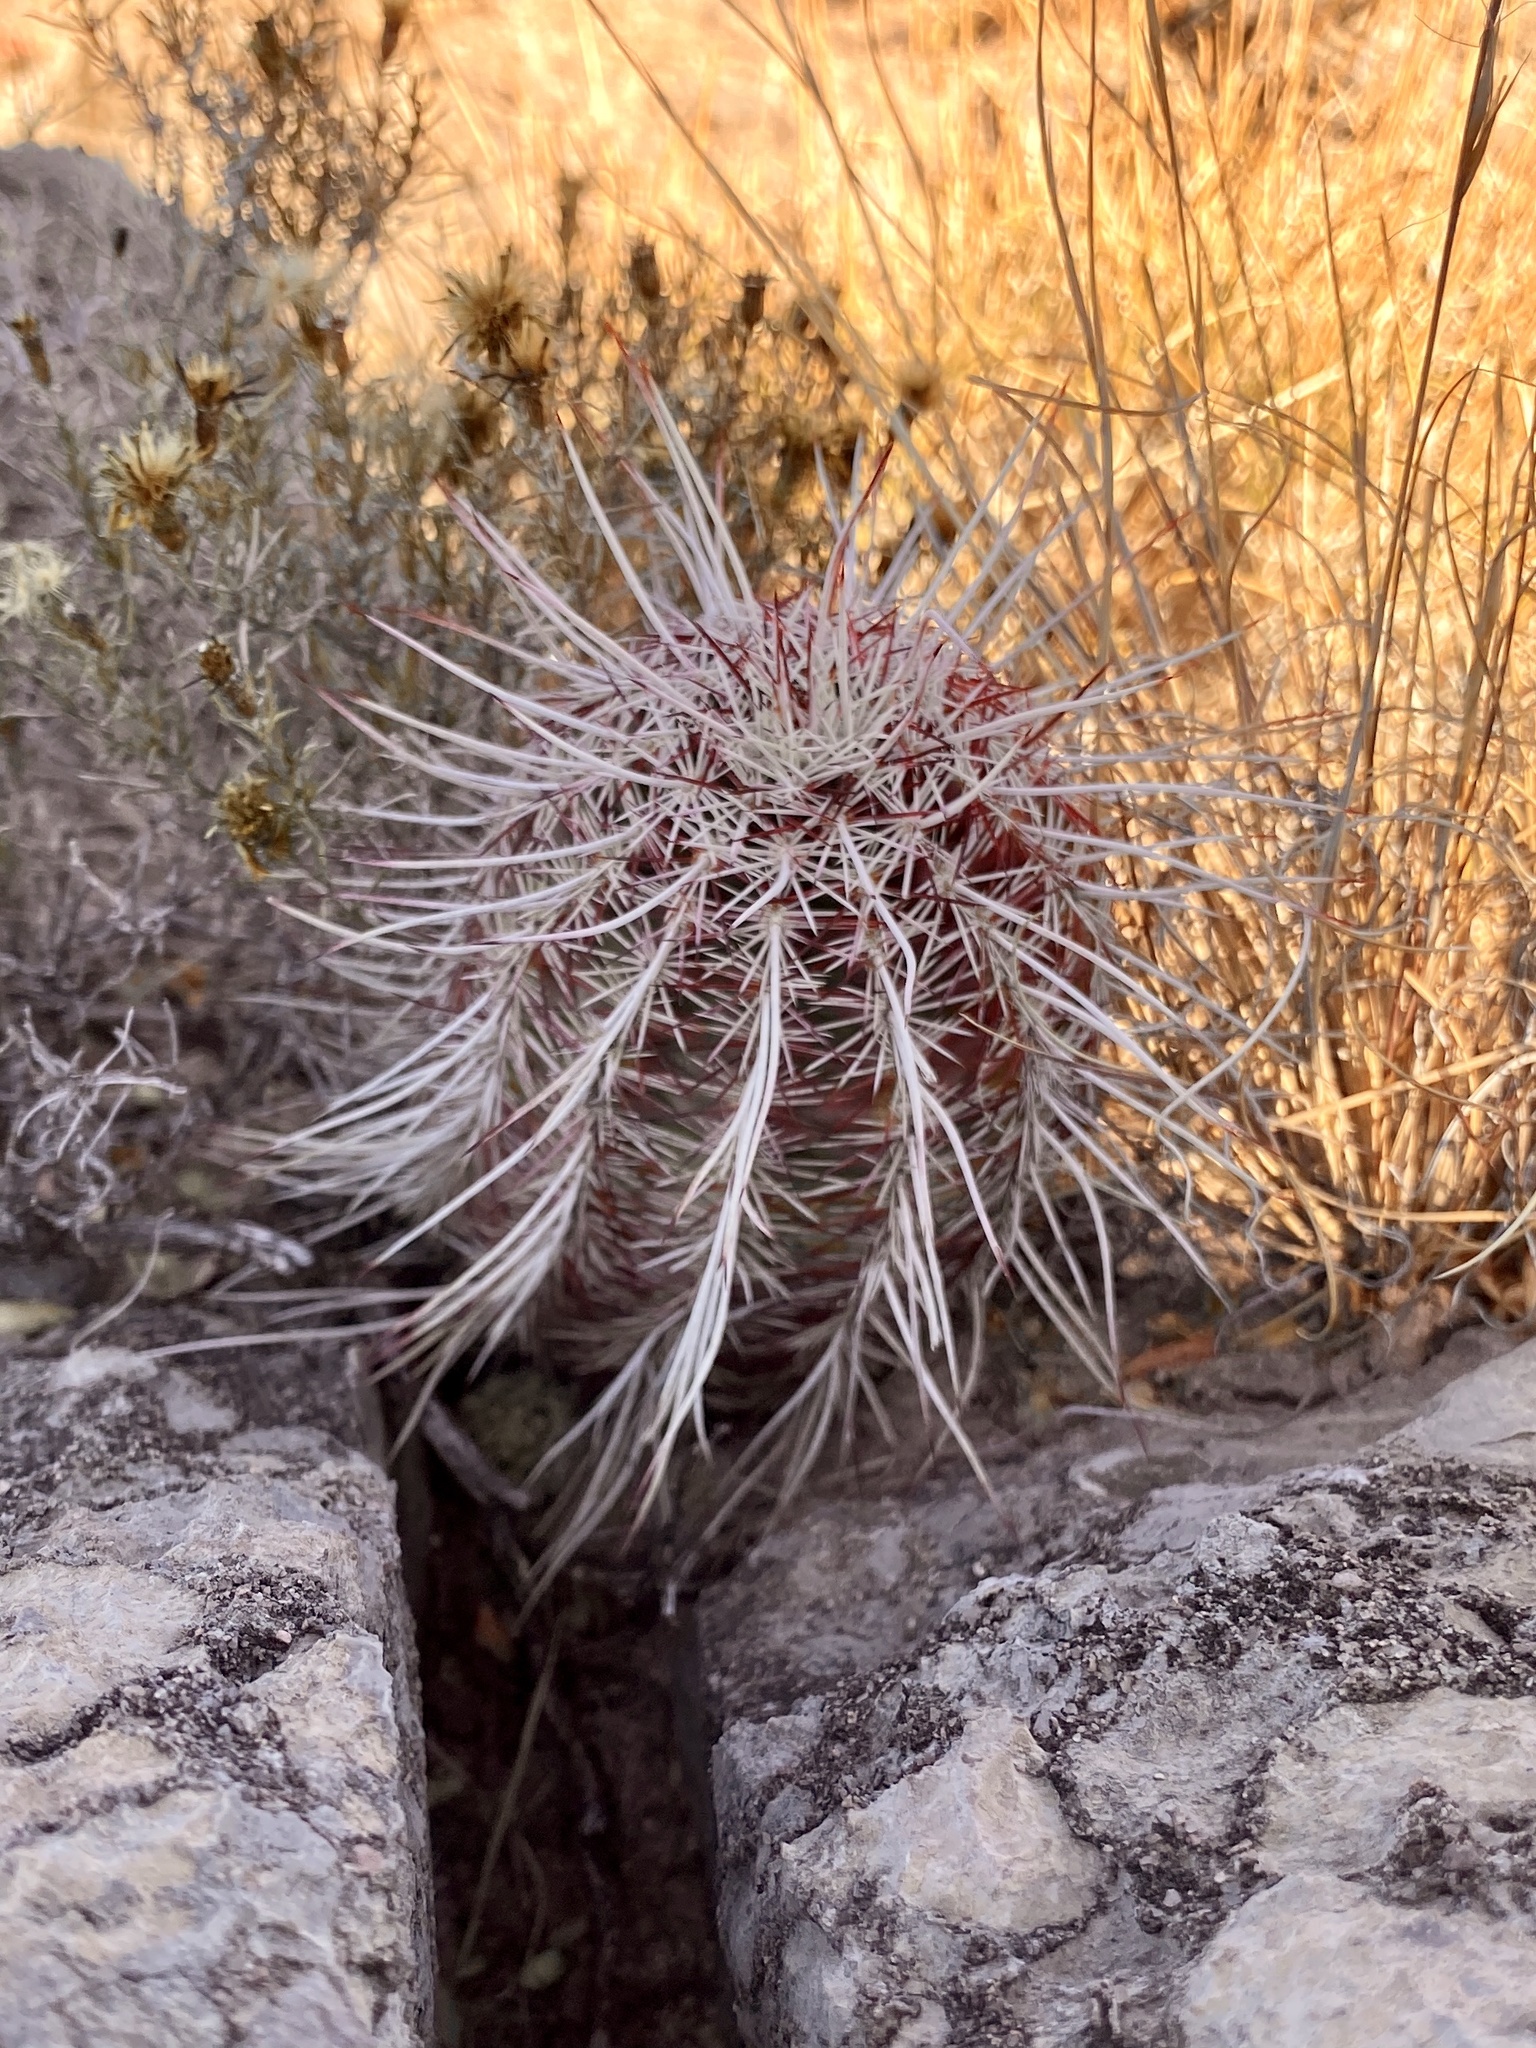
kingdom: Plantae
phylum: Tracheophyta
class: Magnoliopsida
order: Caryophyllales
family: Cactaceae
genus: Echinocereus
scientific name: Echinocereus viridiflorus
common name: Nylon hedgehog cactus
